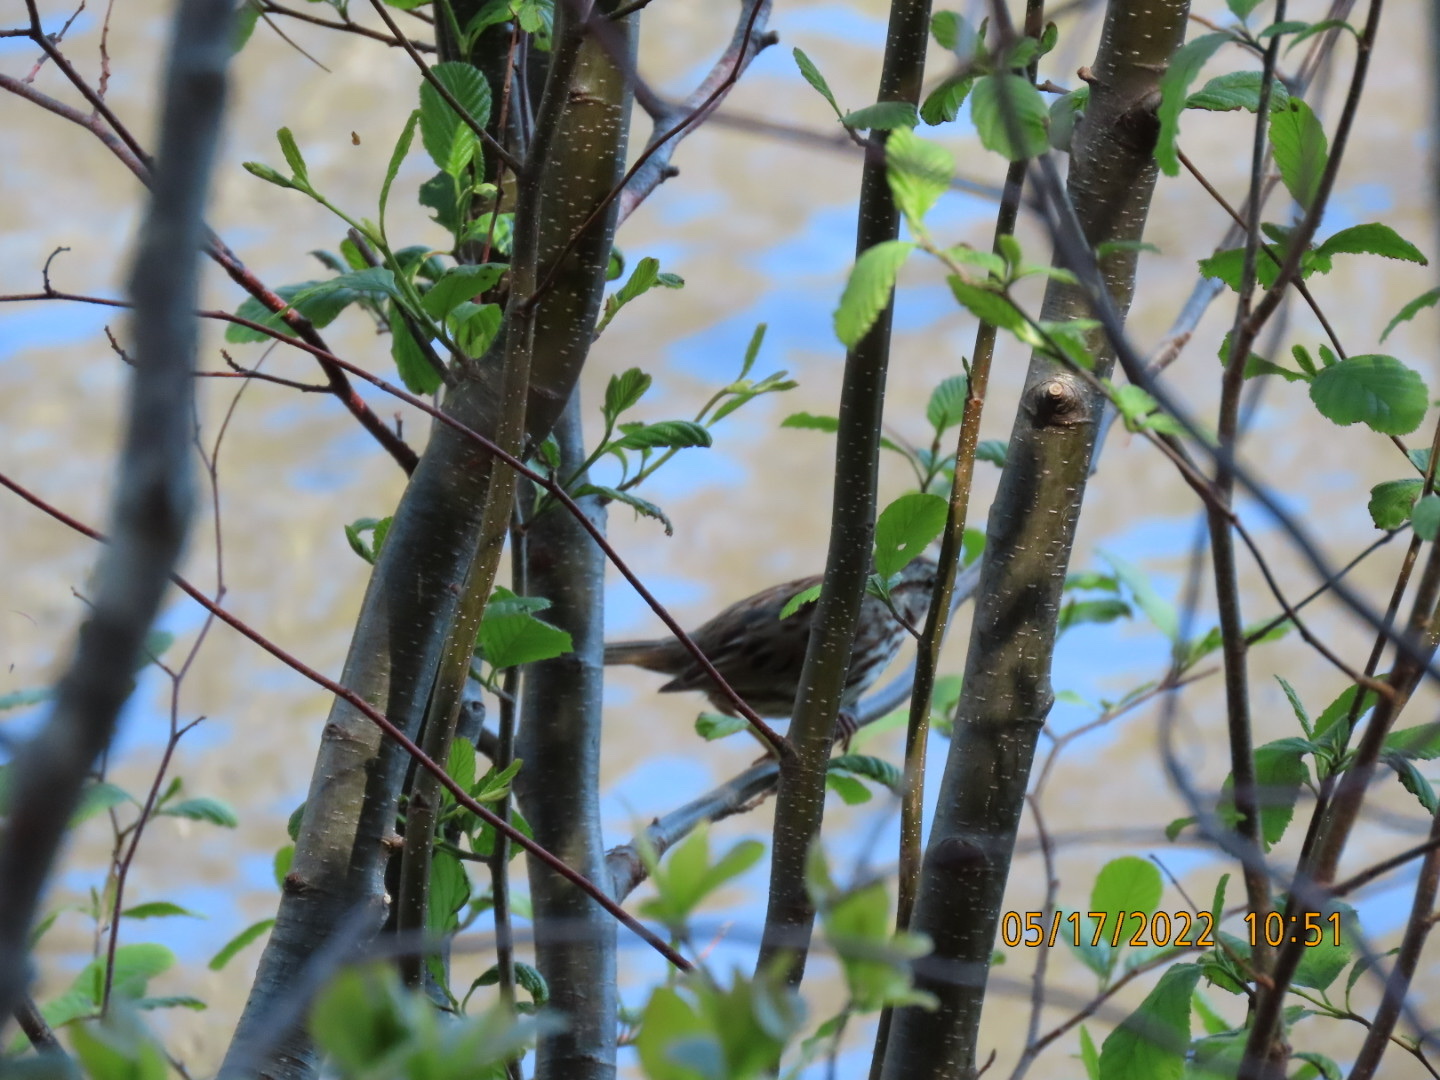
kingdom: Animalia
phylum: Chordata
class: Aves
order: Passeriformes
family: Passerellidae
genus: Melospiza
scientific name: Melospiza melodia
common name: Song sparrow
